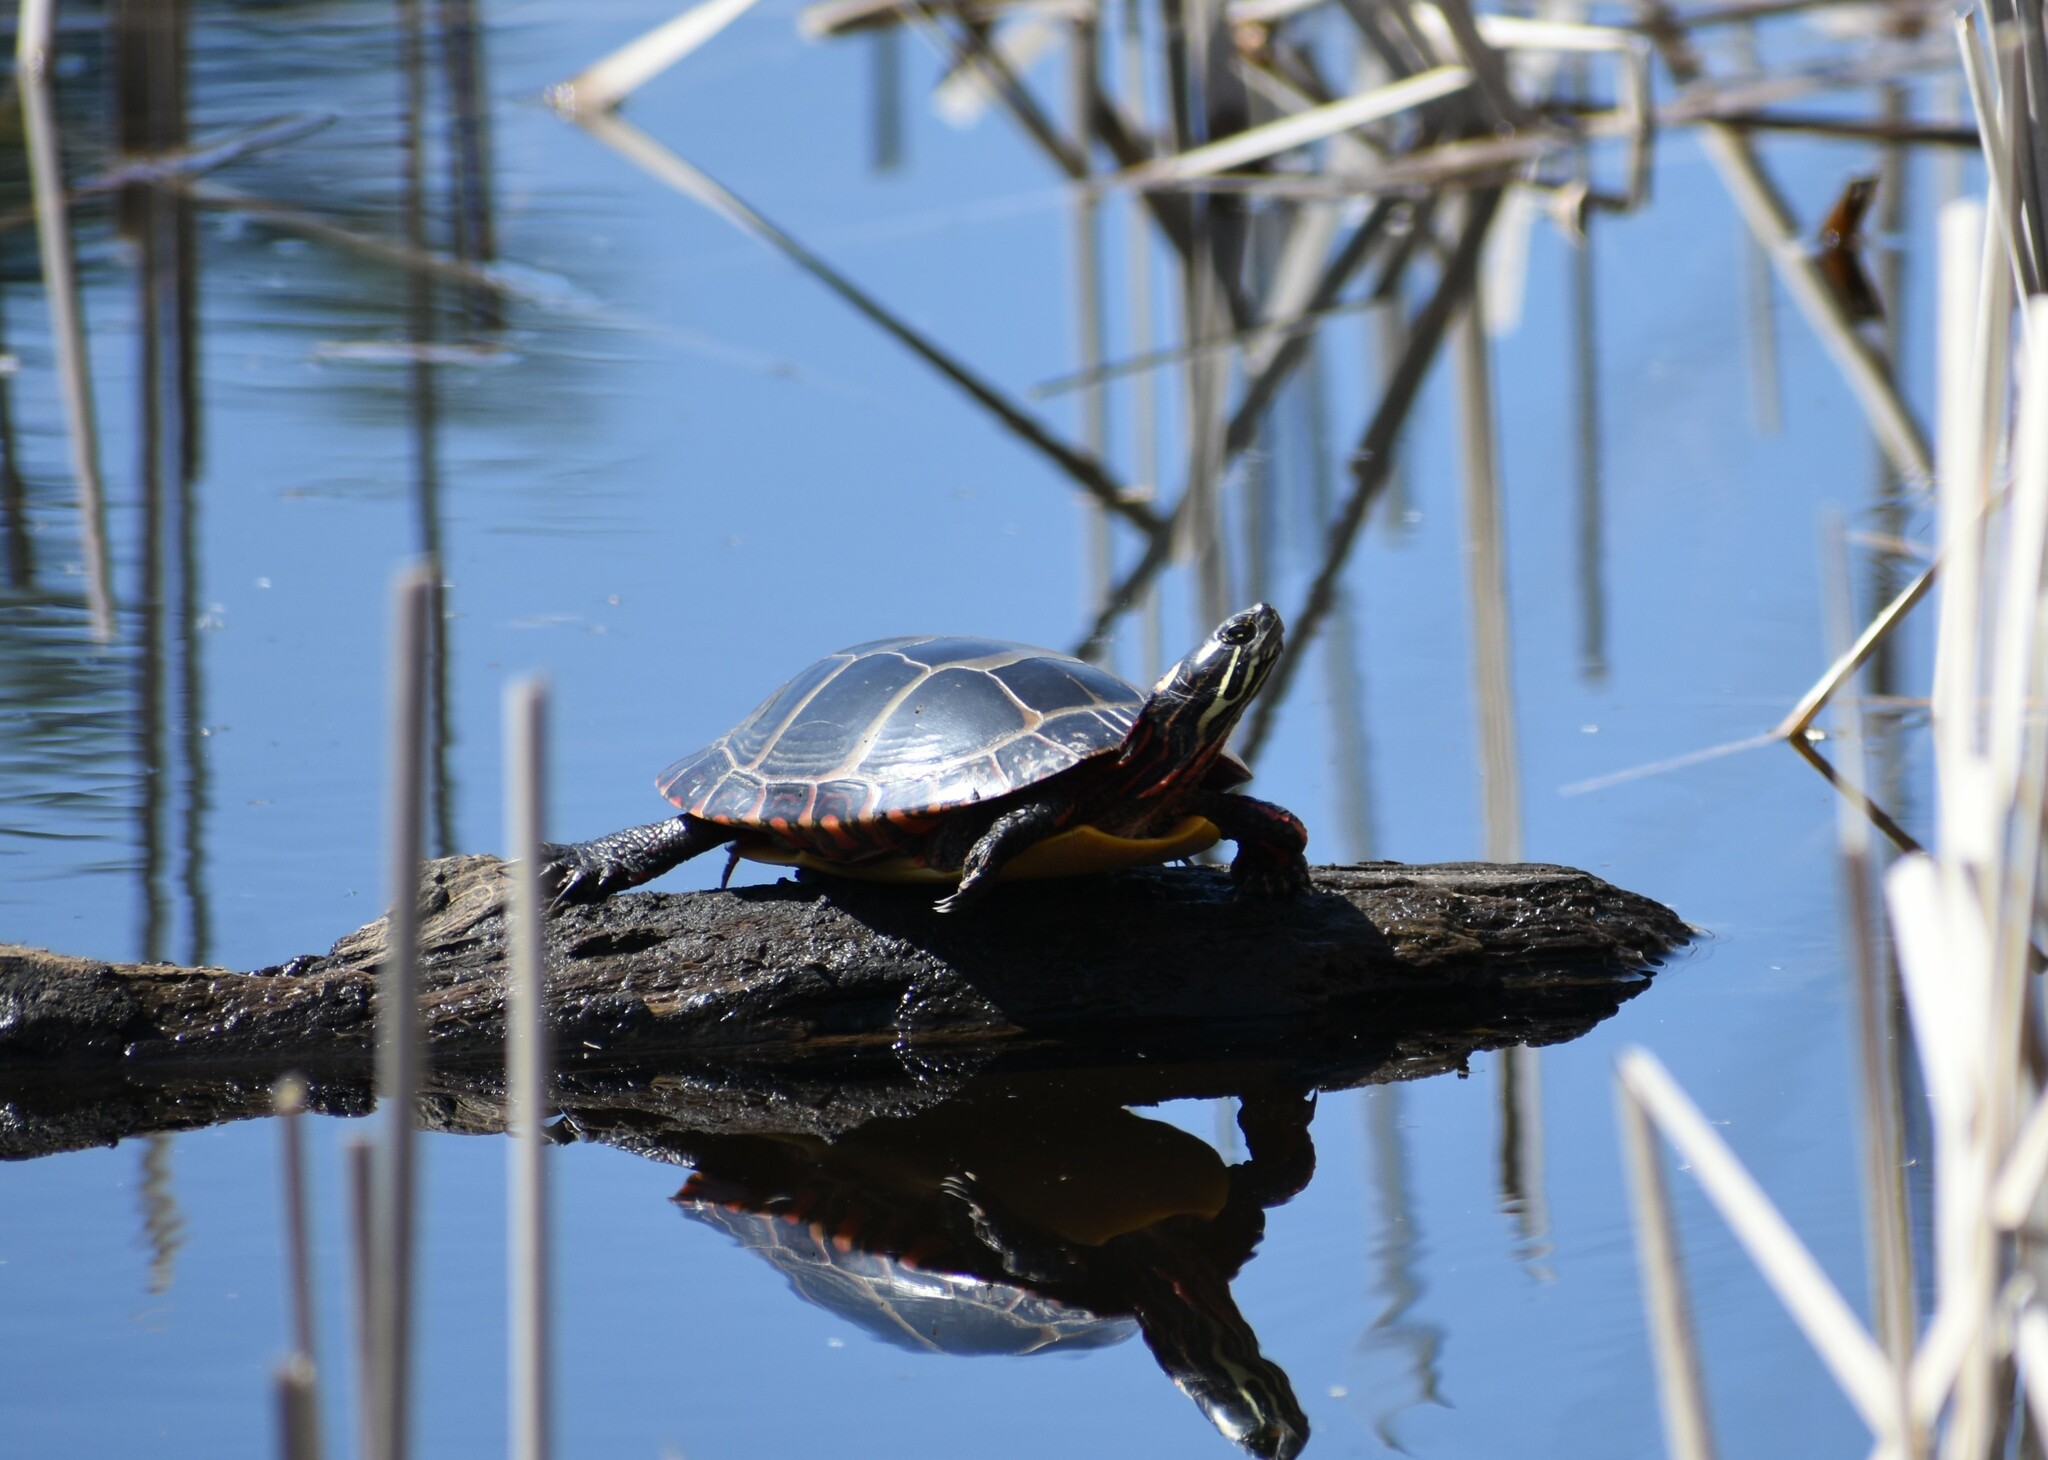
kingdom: Animalia
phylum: Chordata
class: Testudines
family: Emydidae
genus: Chrysemys
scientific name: Chrysemys picta
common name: Painted turtle
